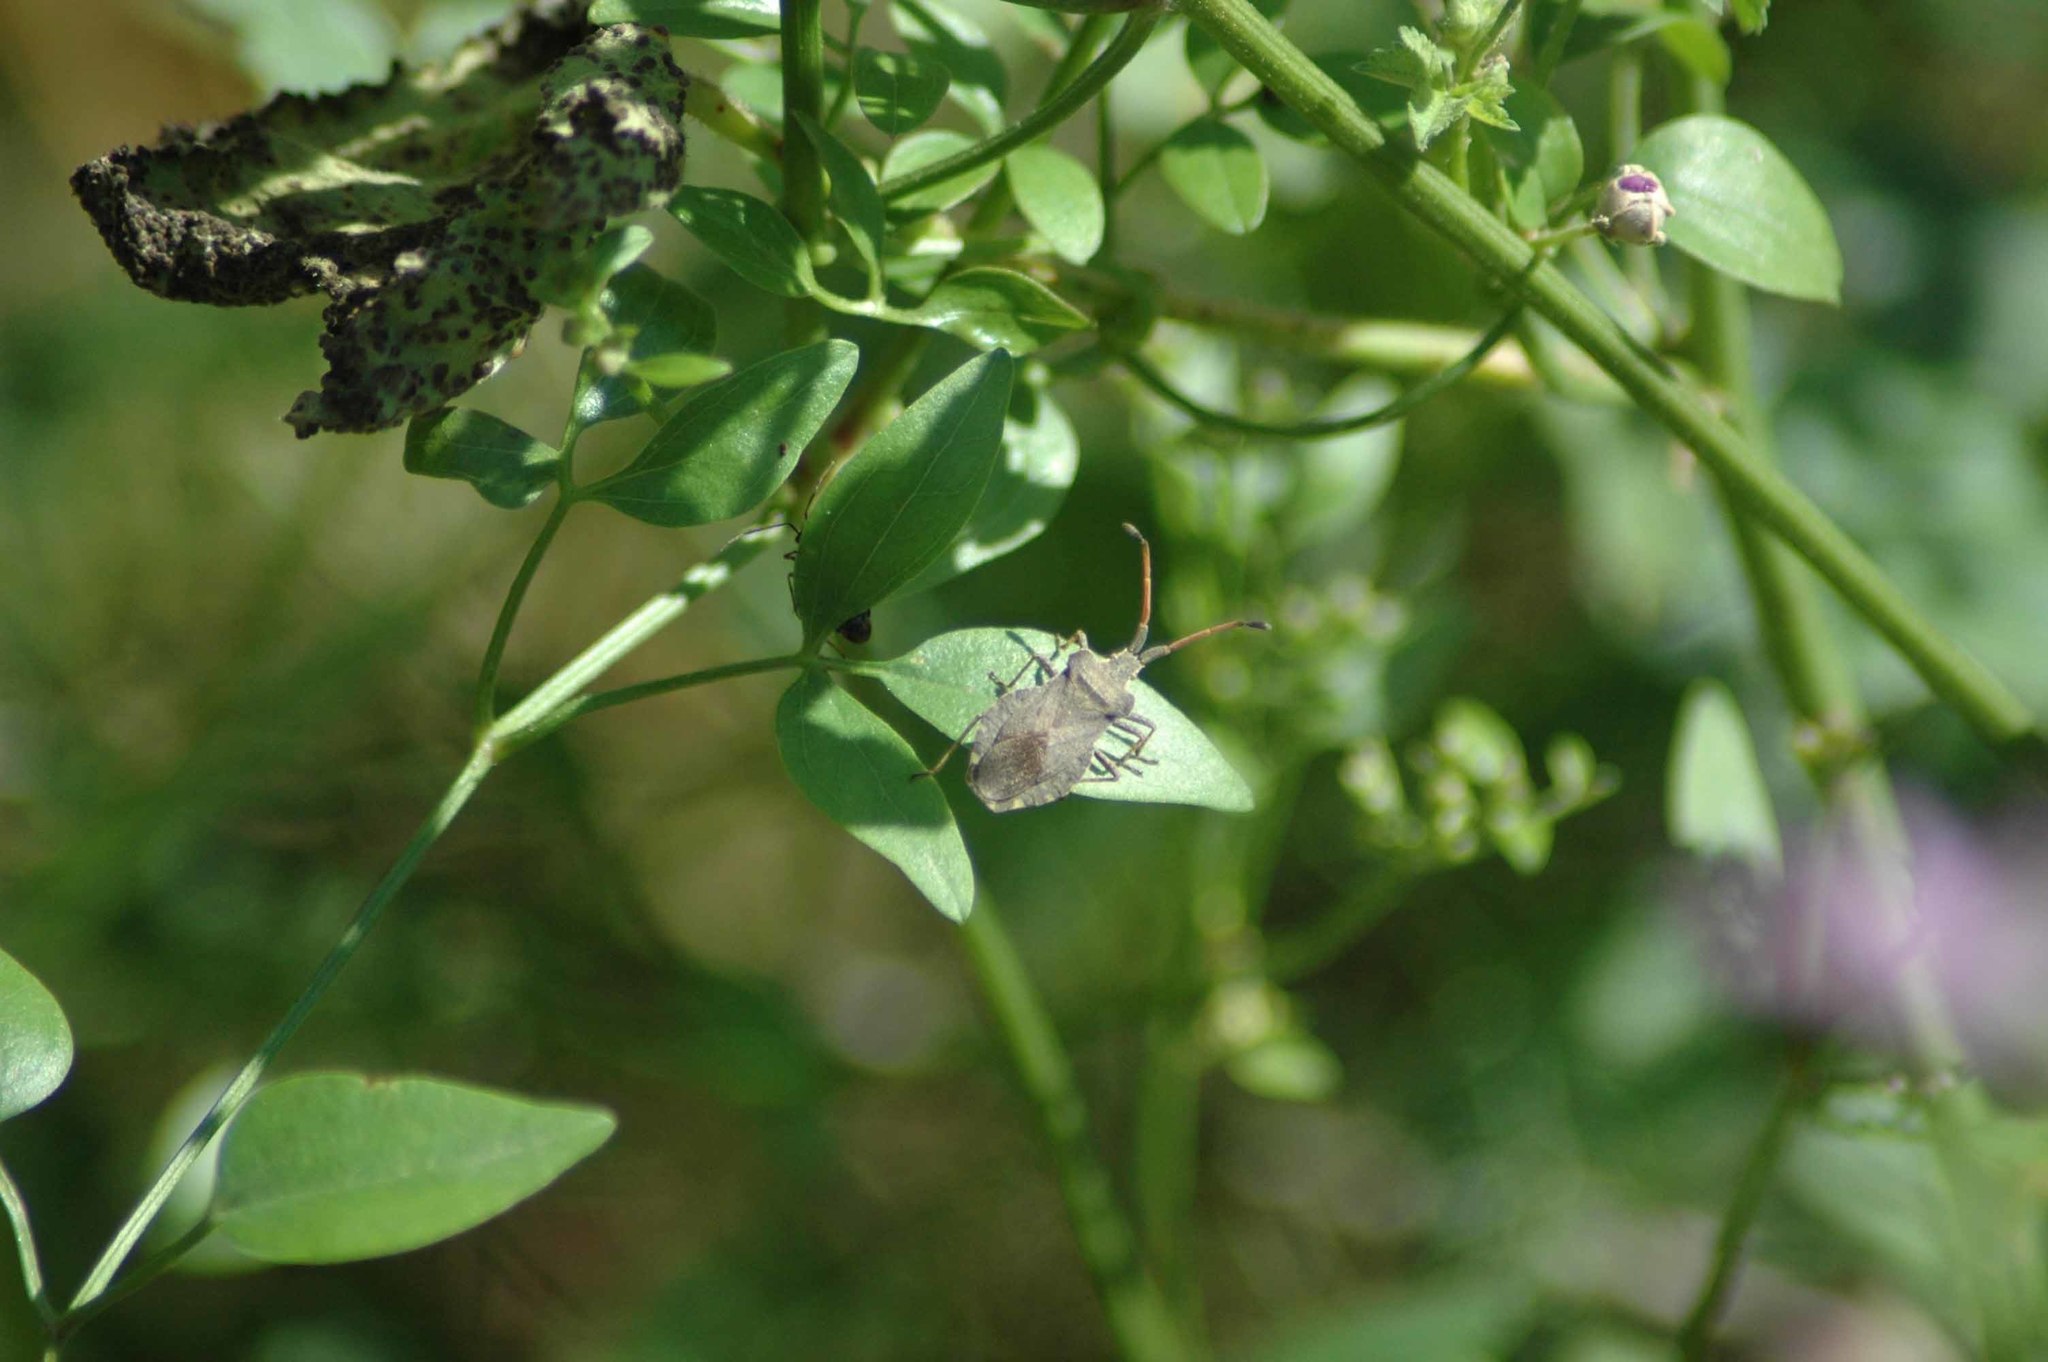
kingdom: Animalia
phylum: Arthropoda
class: Insecta
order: Hemiptera
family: Coreidae
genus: Enoplops
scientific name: Enoplops scapha
